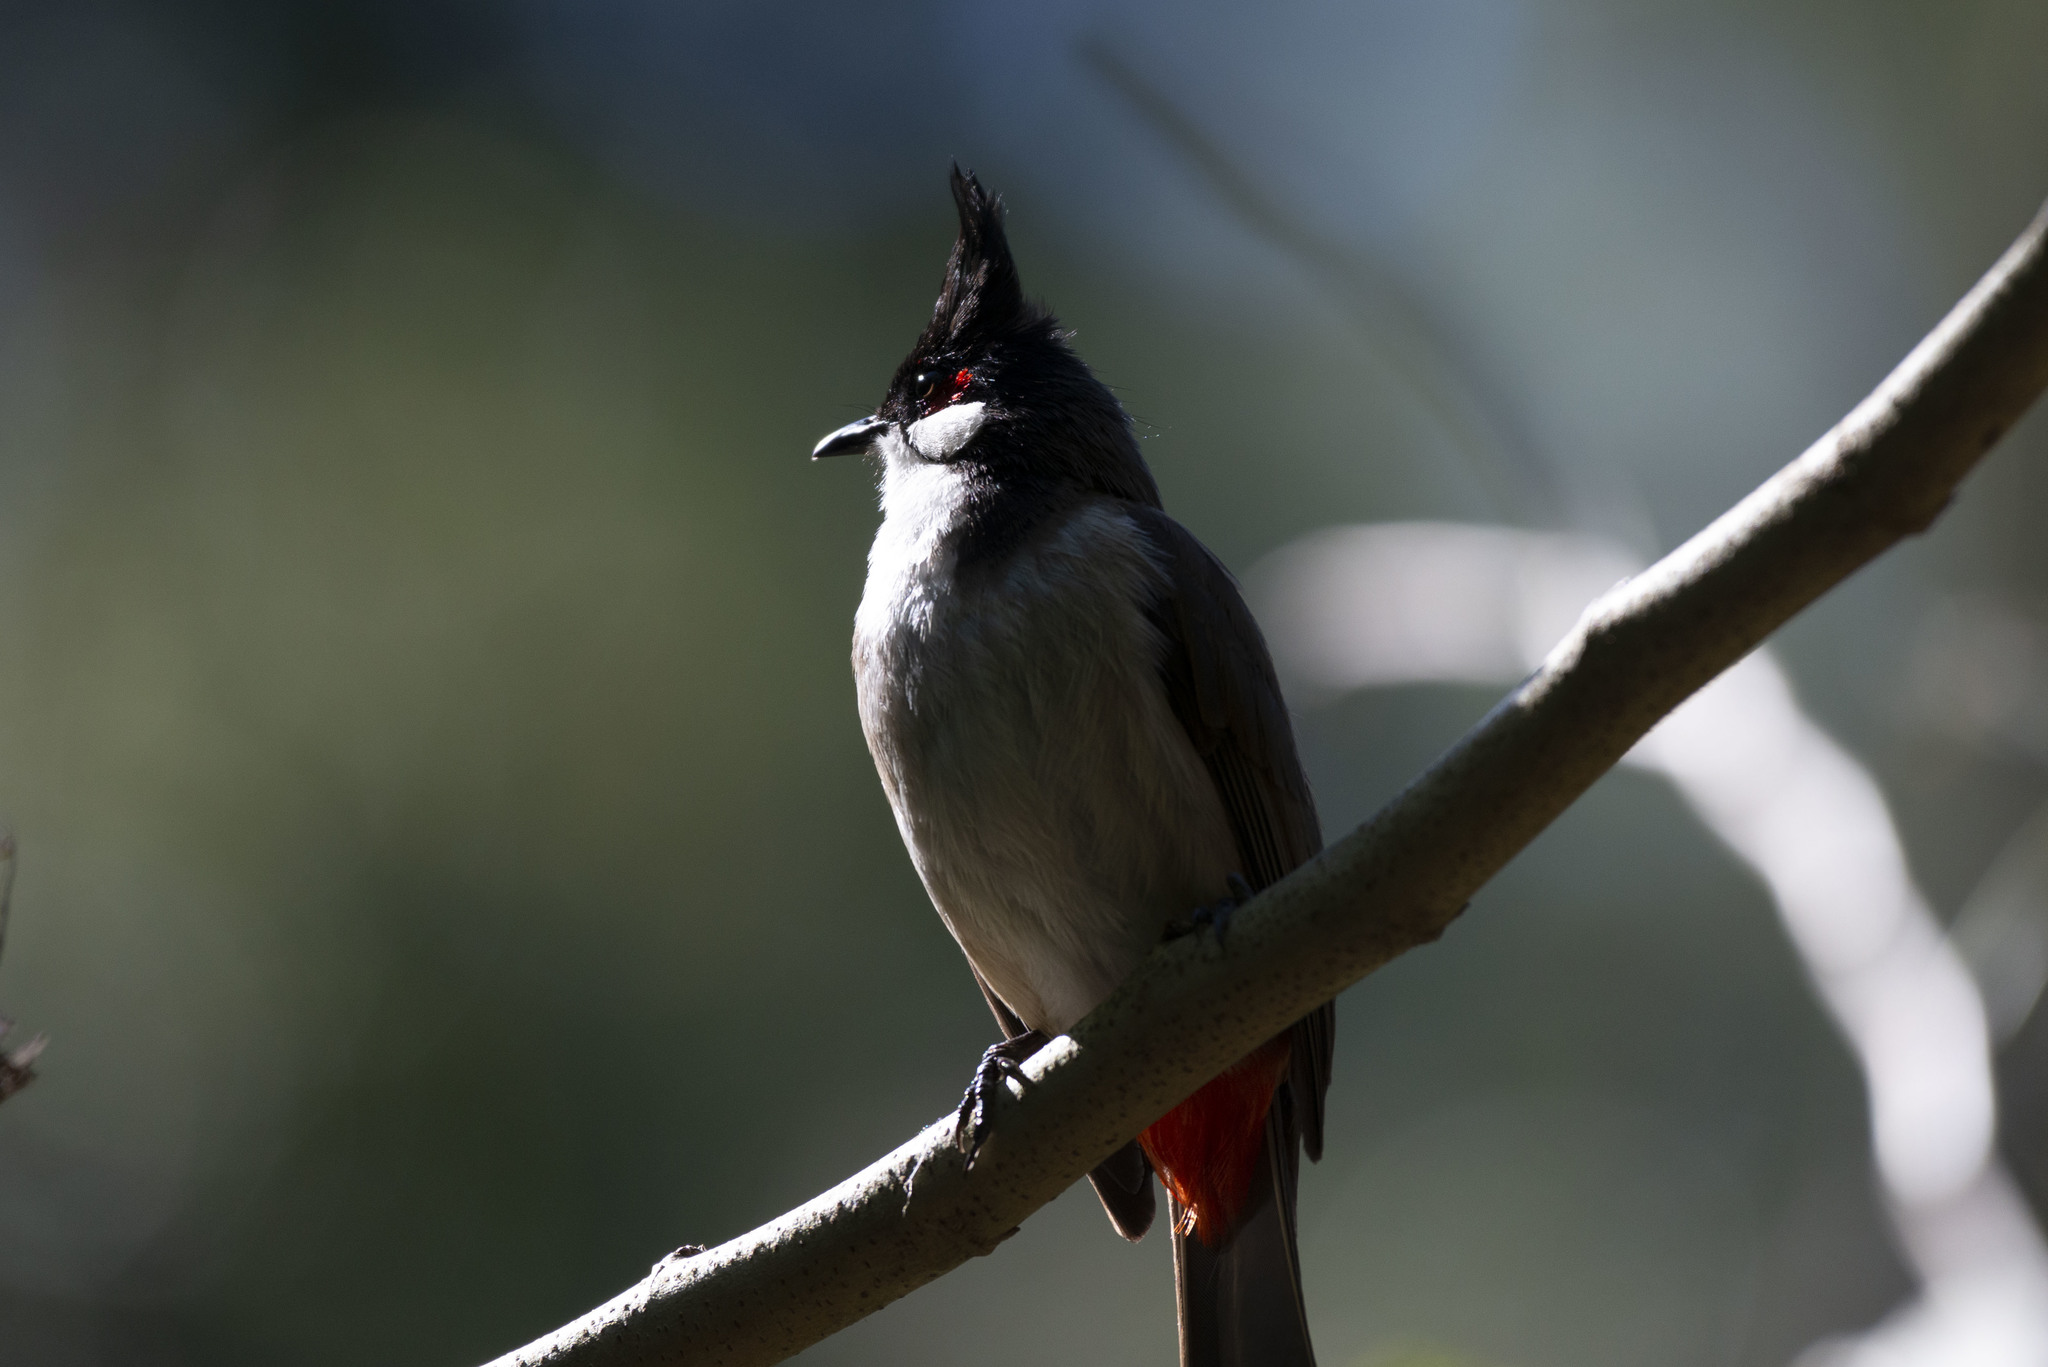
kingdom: Animalia
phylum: Chordata
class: Aves
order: Passeriformes
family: Pycnonotidae
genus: Pycnonotus
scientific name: Pycnonotus jocosus
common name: Red-whiskered bulbul
